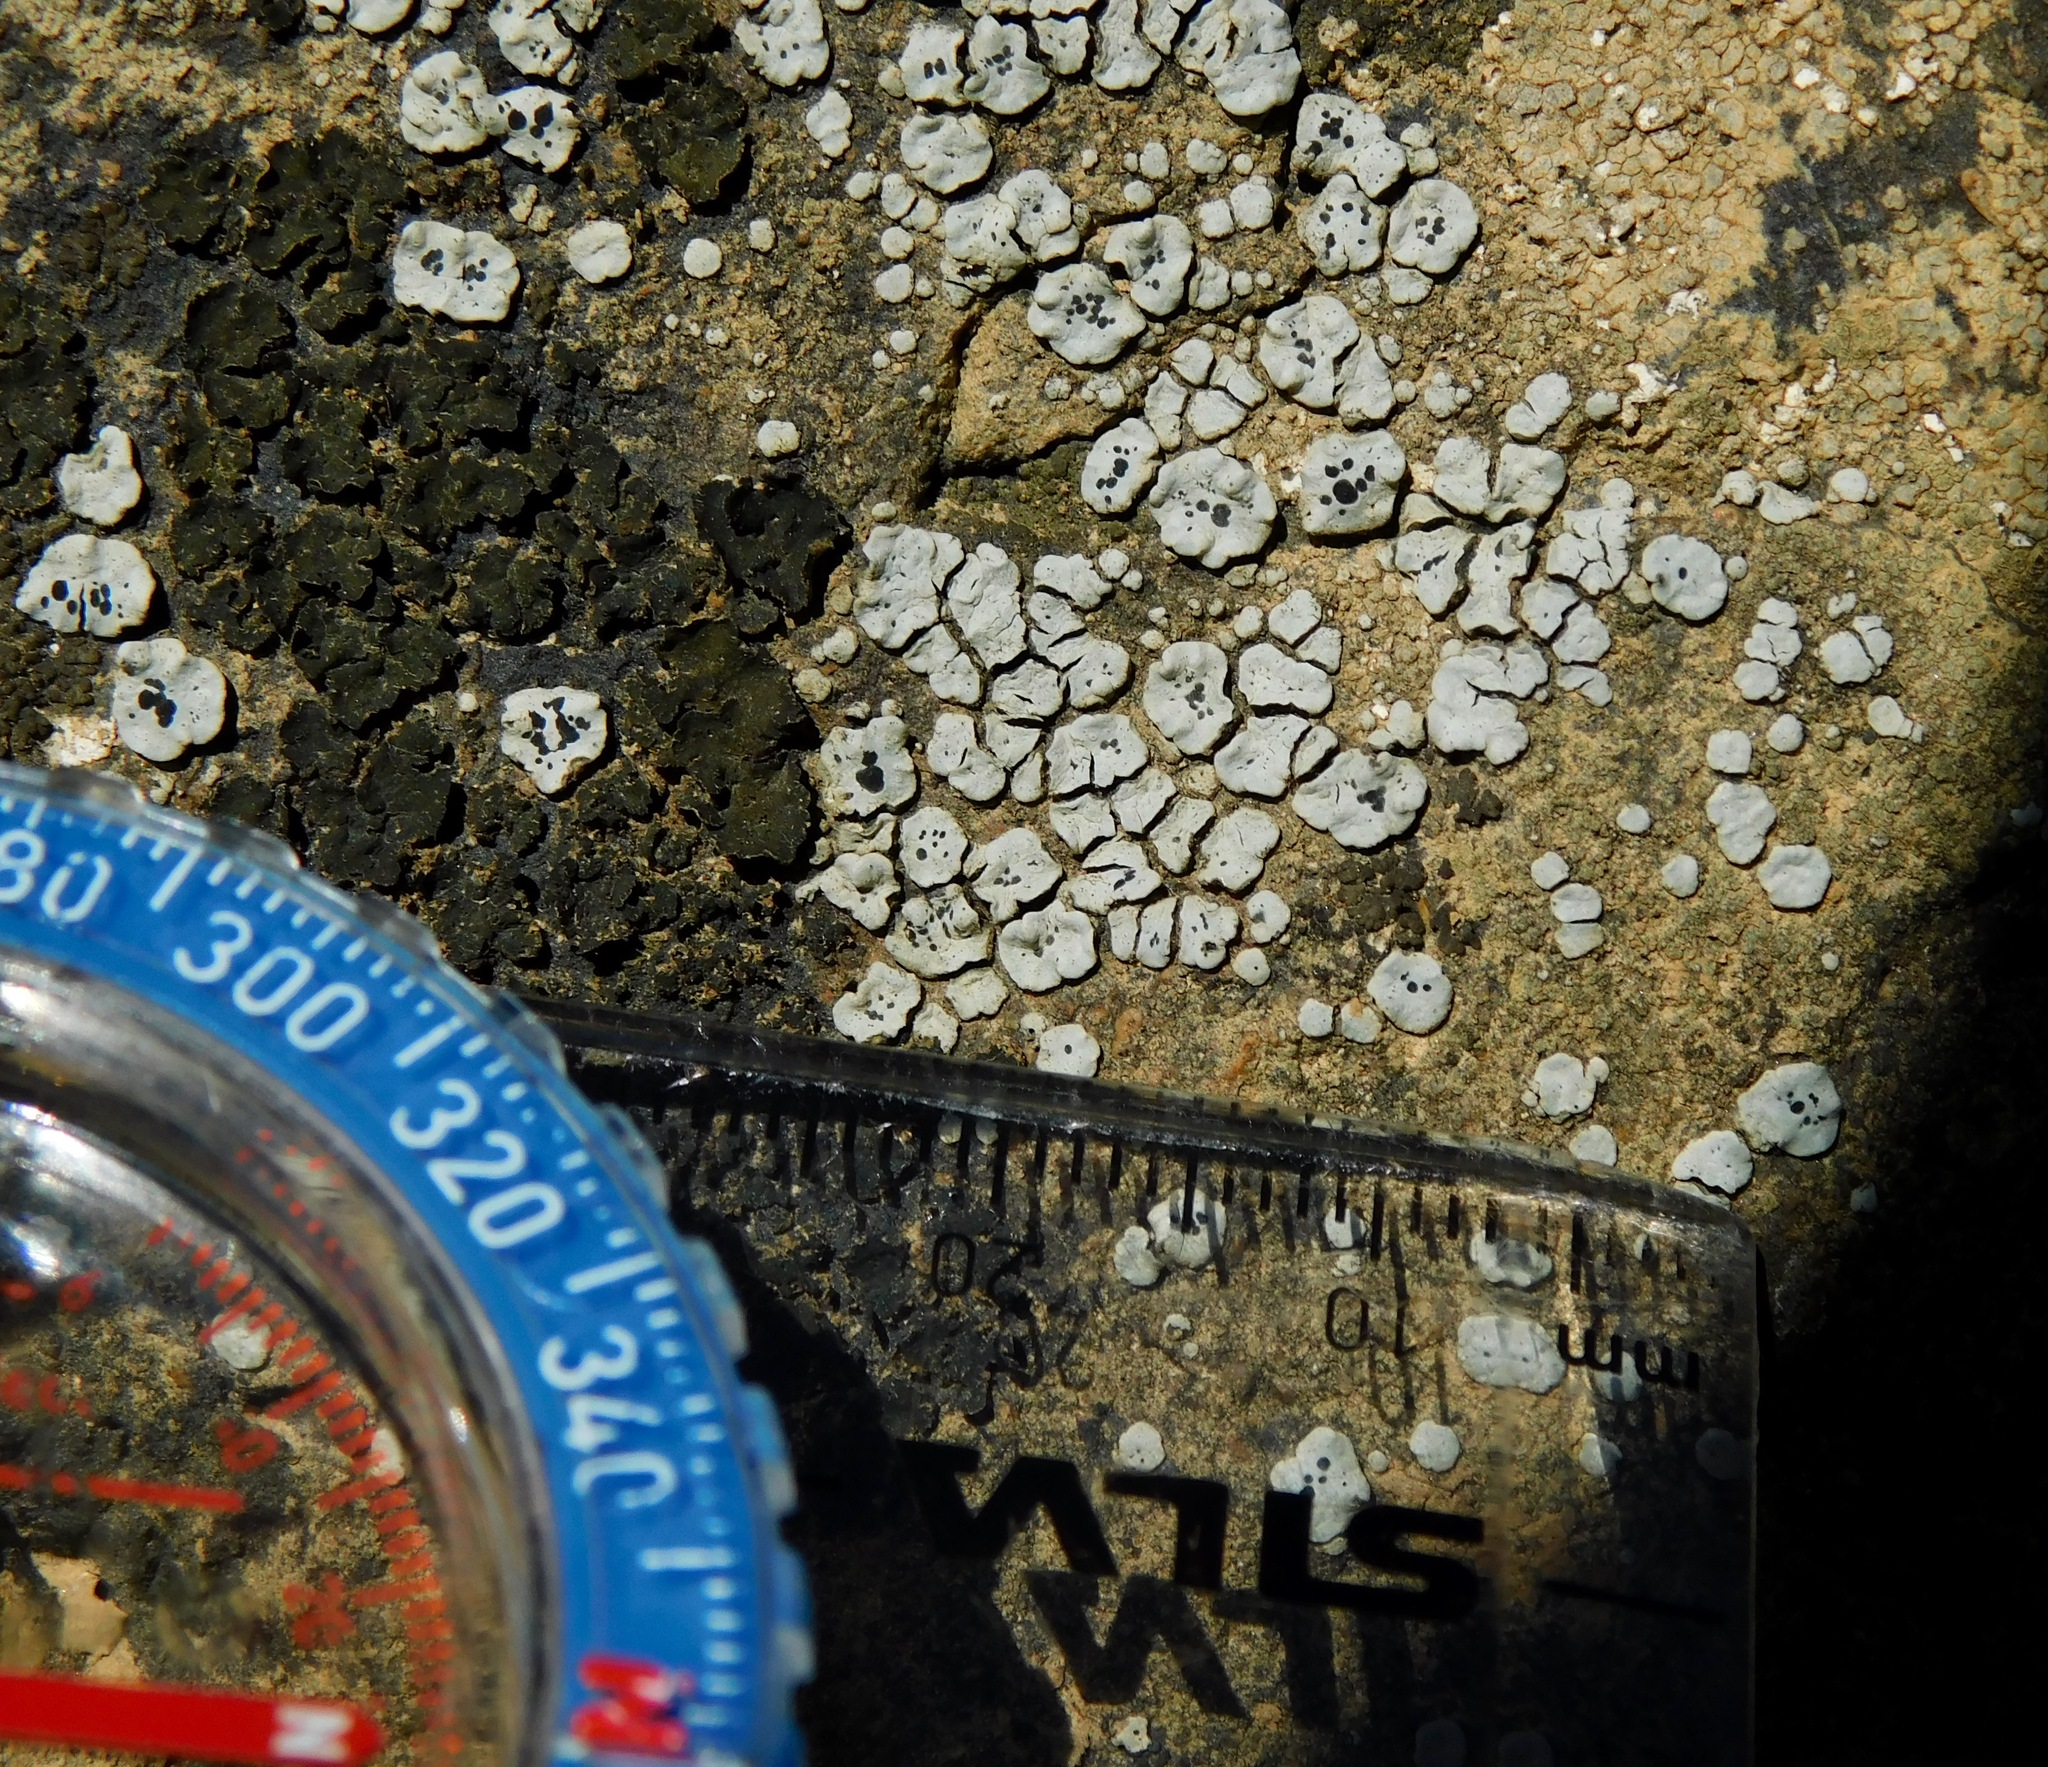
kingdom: Fungi
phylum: Ascomycota
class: Lecanoromycetes
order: Caliciales
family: Caliciaceae
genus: Dermiscellum
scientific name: Dermiscellum oulocheilum
